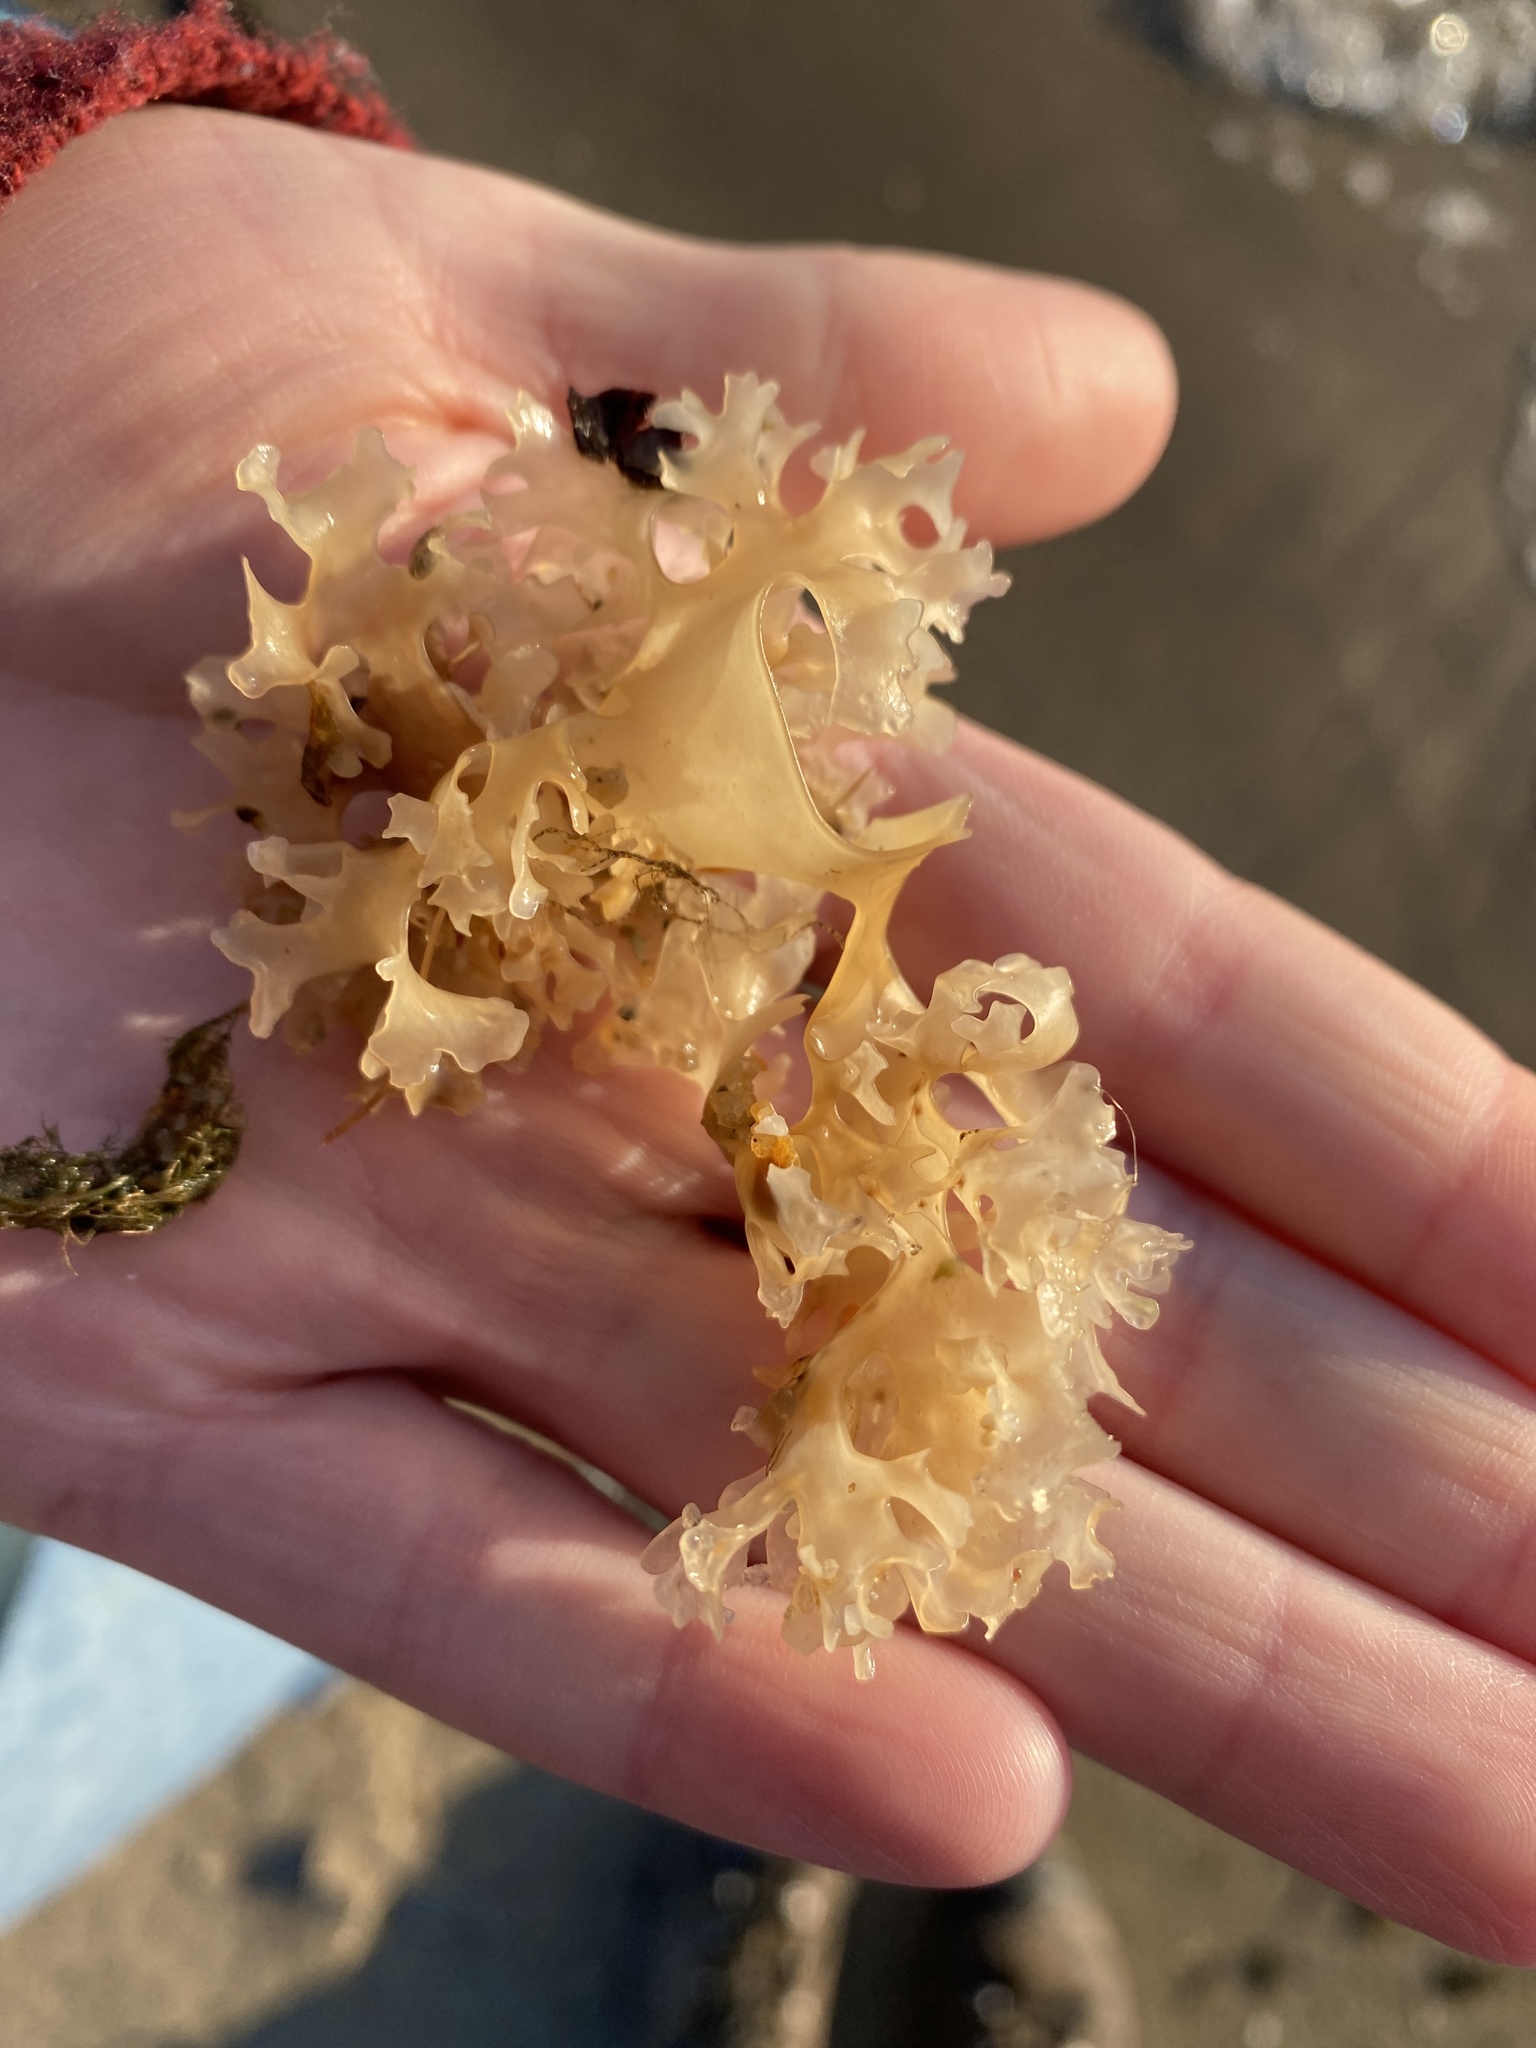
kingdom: Plantae
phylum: Rhodophyta
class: Florideophyceae
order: Gigartinales
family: Gigartinaceae
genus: Chondrus
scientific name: Chondrus crispus
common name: Carrageen
